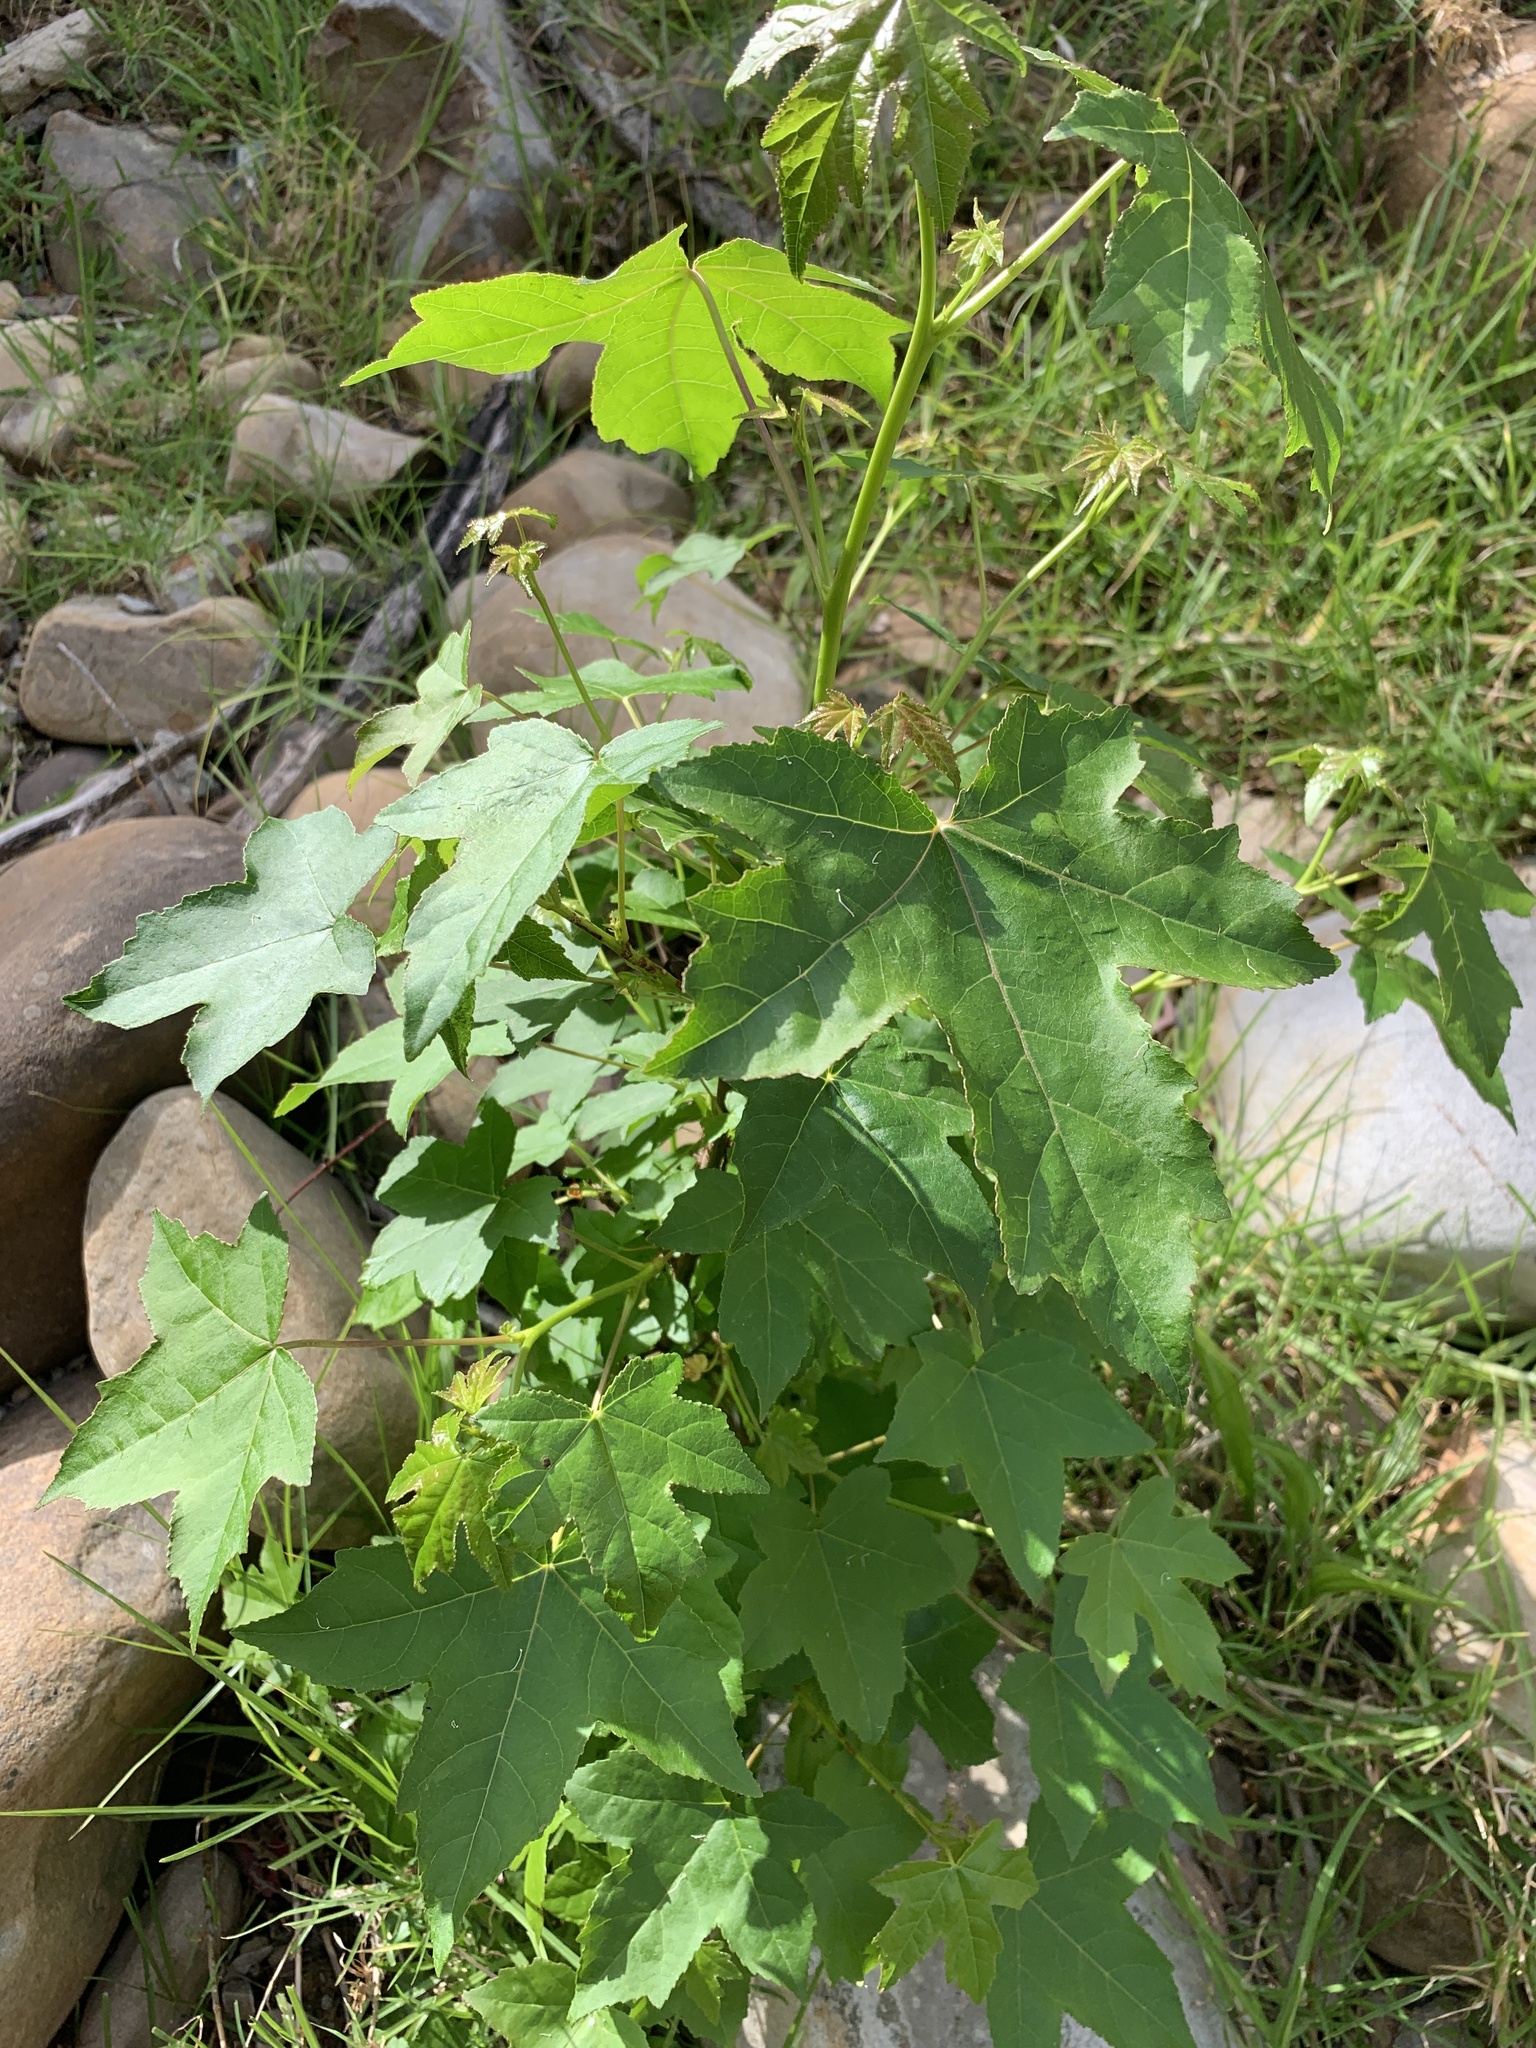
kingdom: Plantae
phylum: Tracheophyta
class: Magnoliopsida
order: Saxifragales
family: Altingiaceae
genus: Liquidambar
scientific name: Liquidambar styraciflua
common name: Sweet gum
